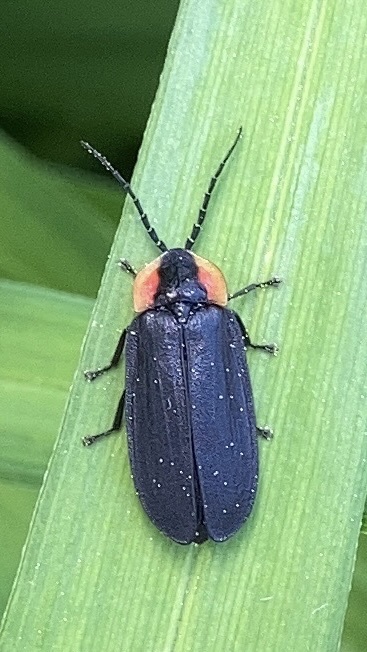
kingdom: Animalia
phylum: Arthropoda
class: Insecta
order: Coleoptera
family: Lampyridae
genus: Lucidota
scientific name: Lucidota atra
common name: Black firefly
